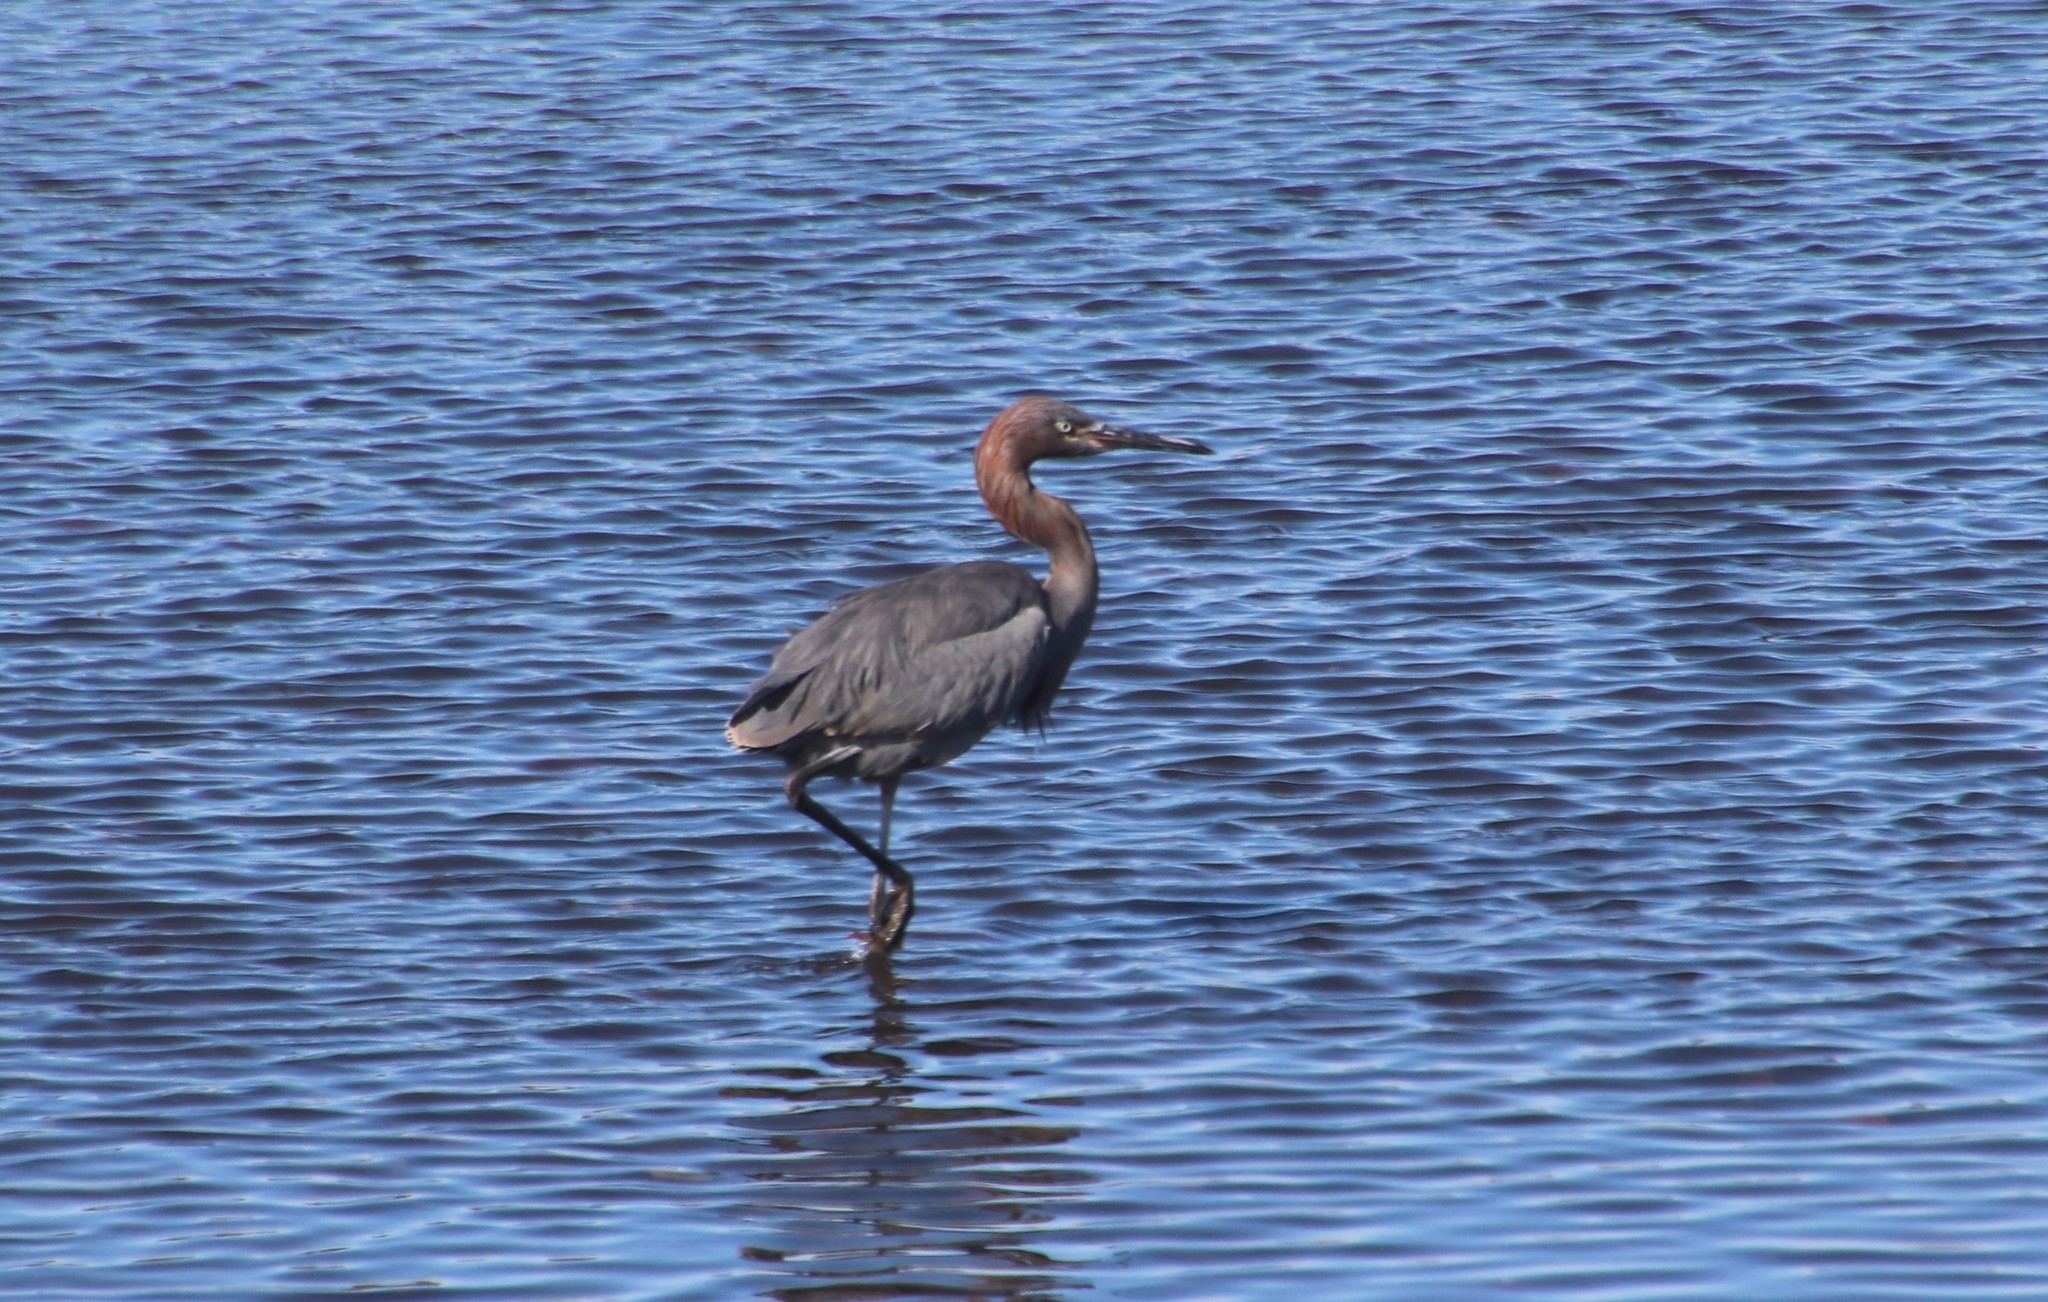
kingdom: Animalia
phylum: Chordata
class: Aves
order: Pelecaniformes
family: Ardeidae
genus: Egretta
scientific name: Egretta rufescens
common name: Reddish egret
